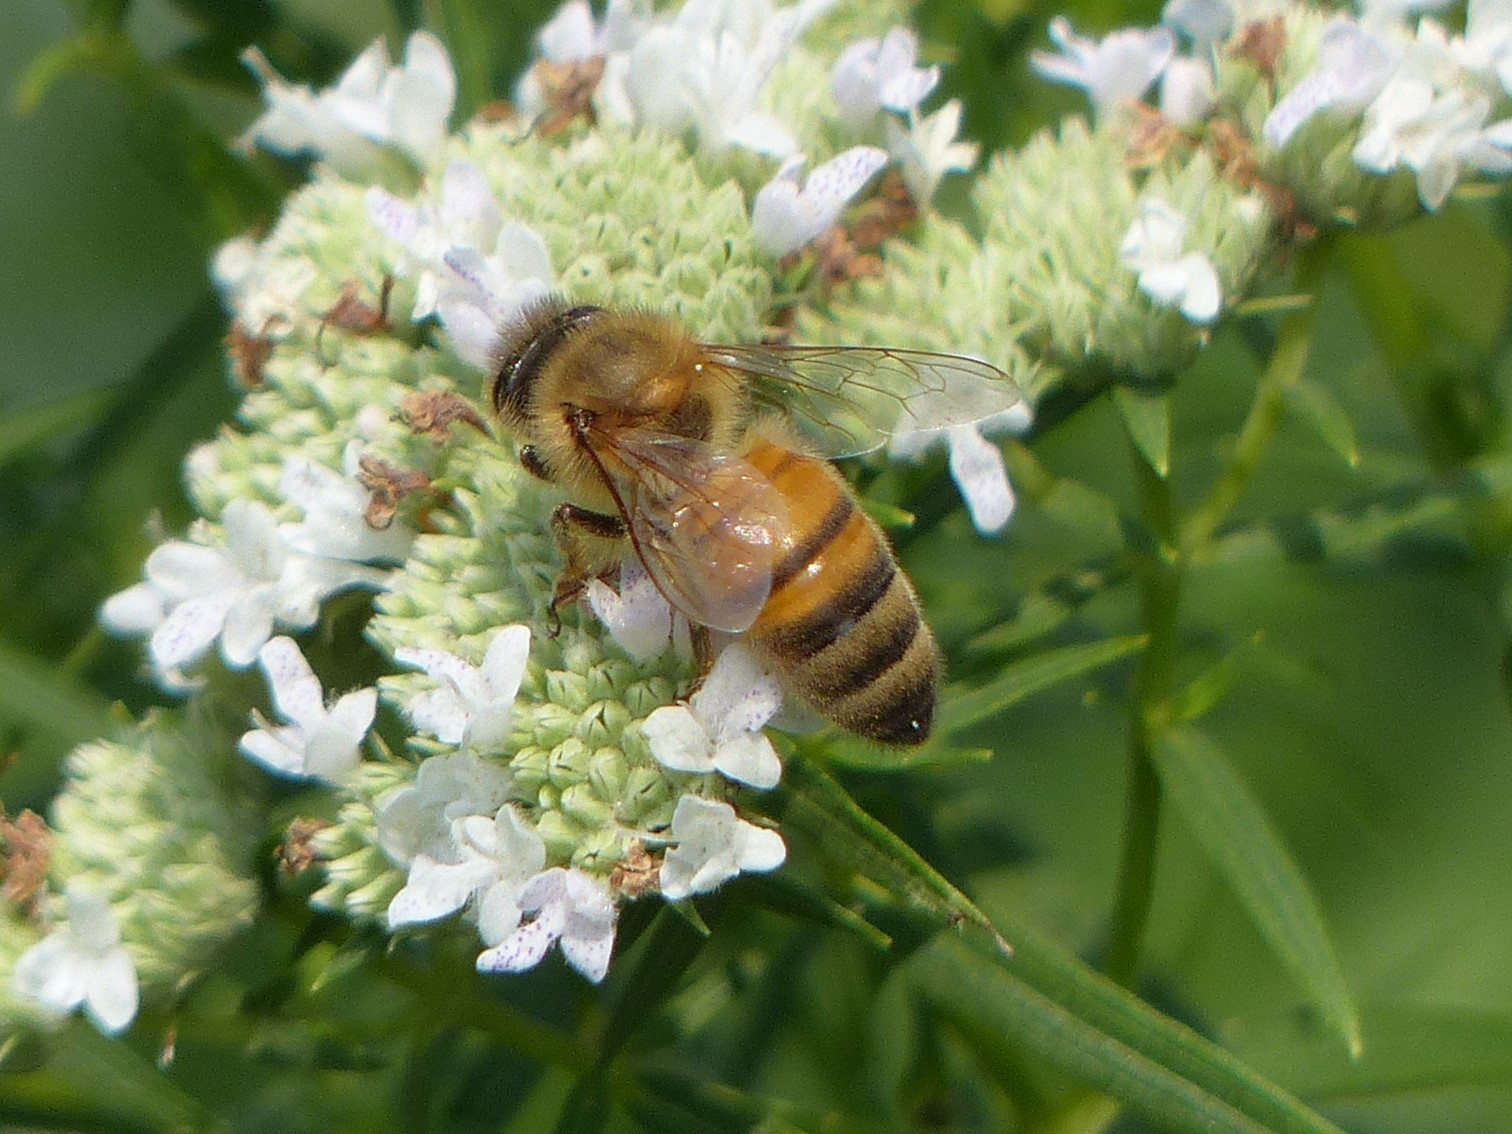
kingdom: Animalia
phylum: Arthropoda
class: Insecta
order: Hymenoptera
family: Apidae
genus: Apis
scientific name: Apis mellifera
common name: Honey bee
